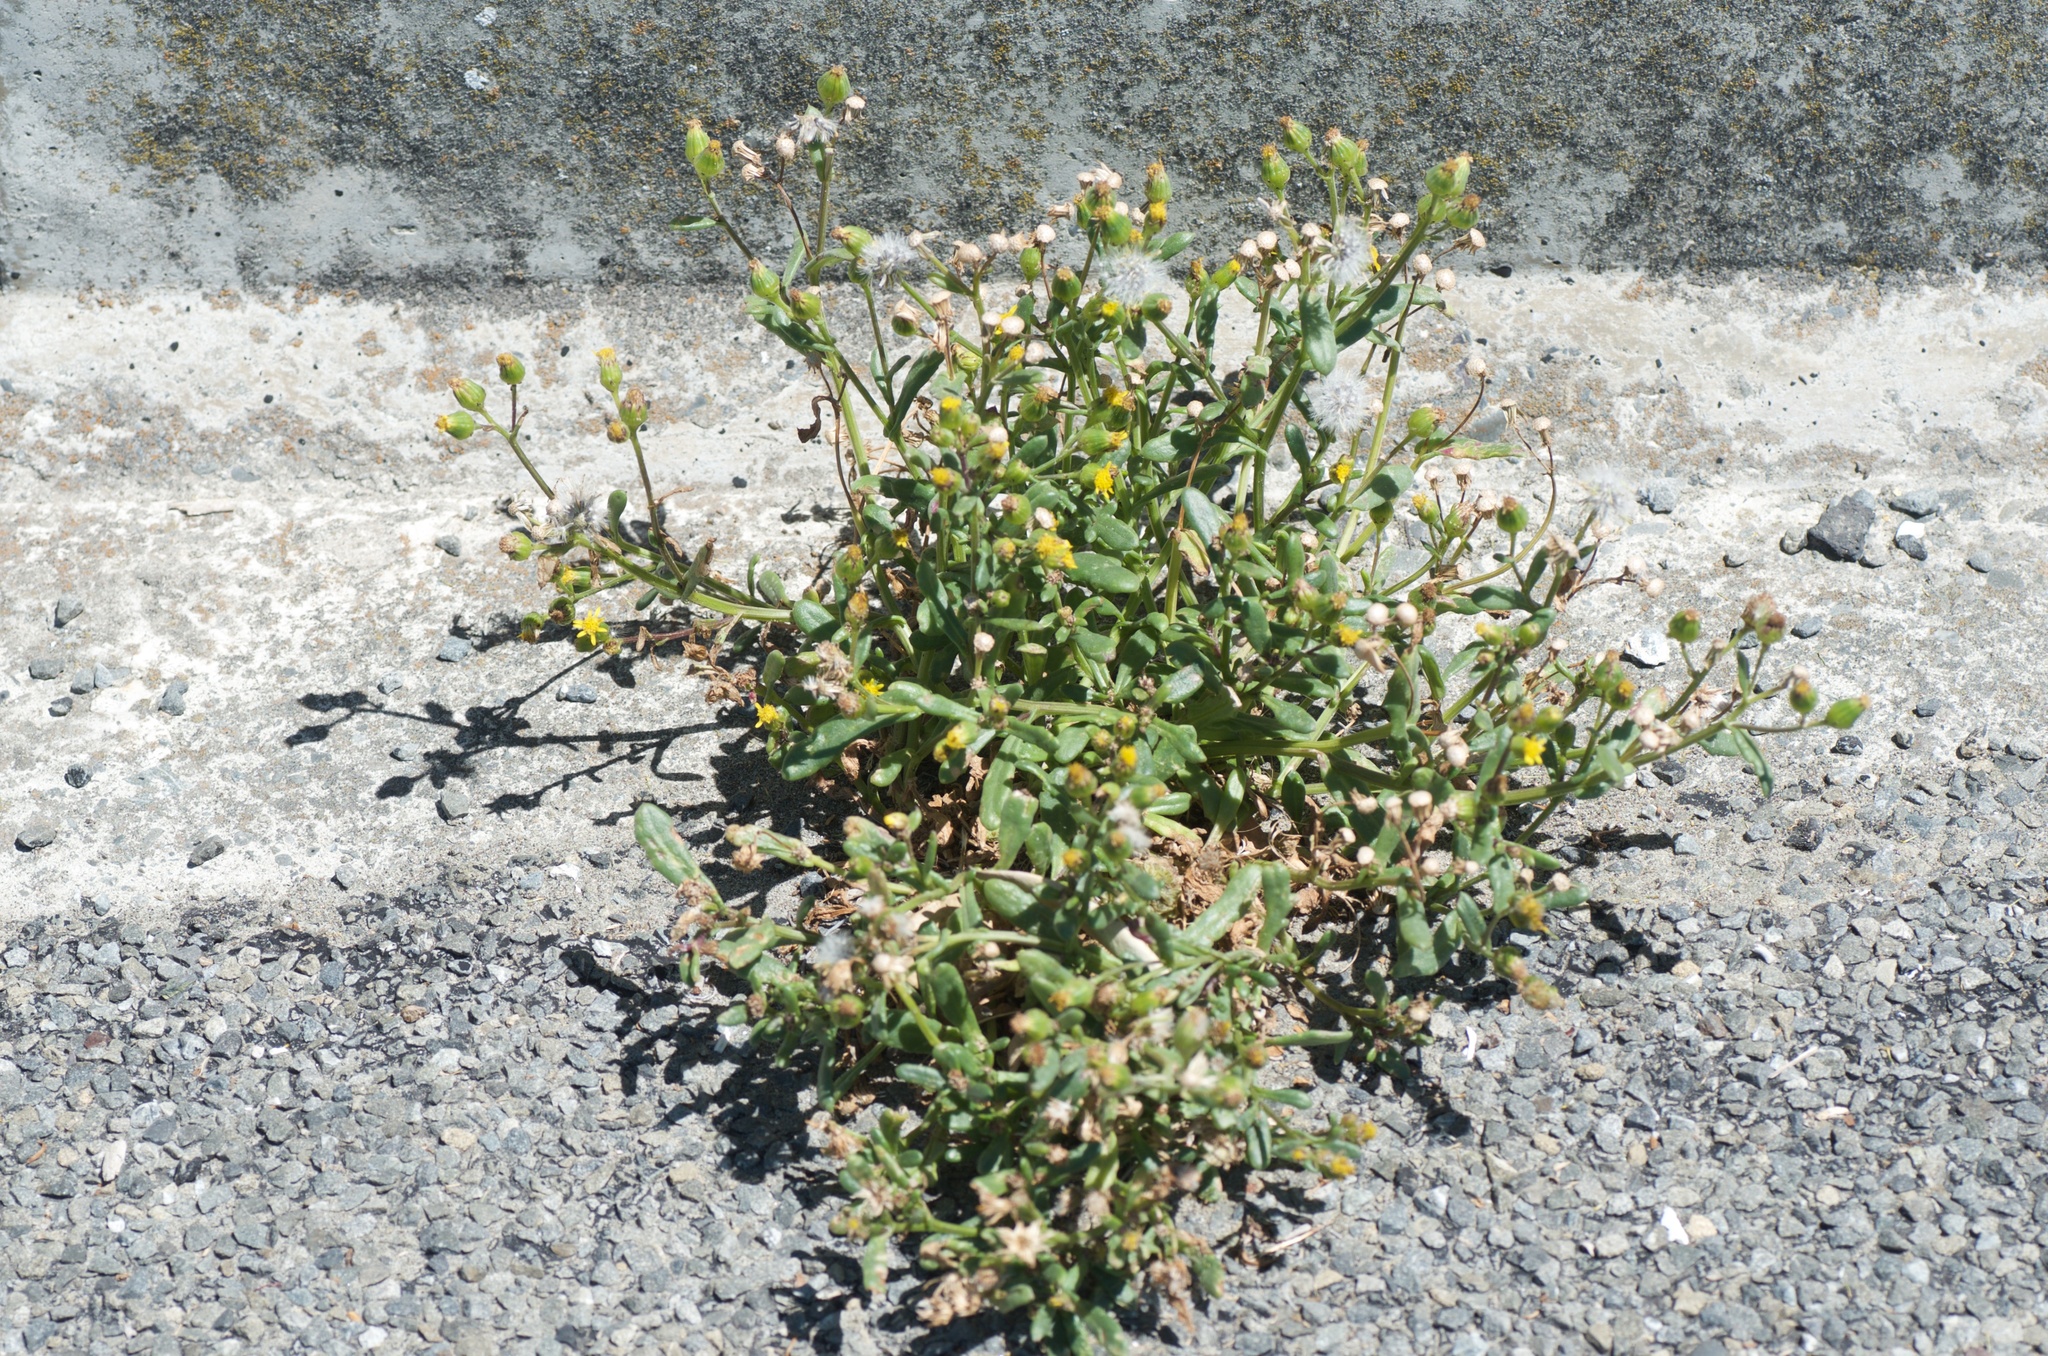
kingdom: Plantae
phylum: Tracheophyta
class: Magnoliopsida
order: Asterales
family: Asteraceae
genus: Senecio
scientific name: Senecio lautus
